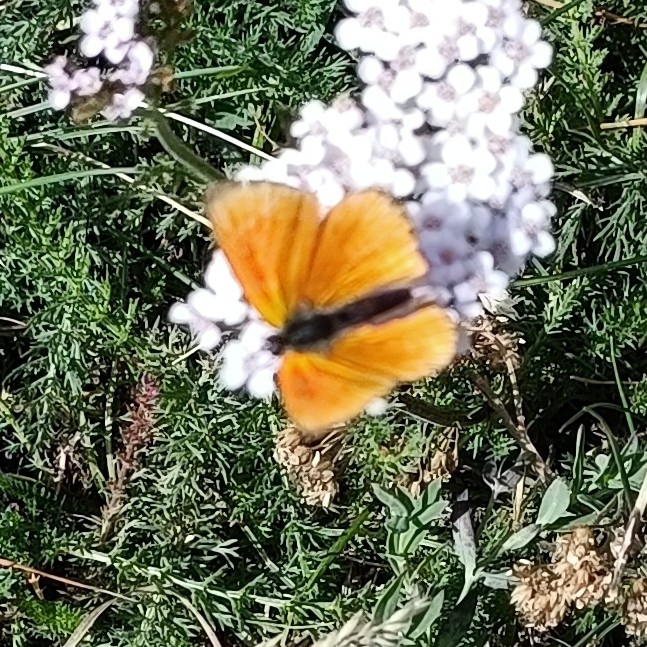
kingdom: Animalia
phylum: Arthropoda
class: Insecta
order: Lepidoptera
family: Lycaenidae
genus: Lycaena
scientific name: Lycaena virgaureae
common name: Scarce copper
